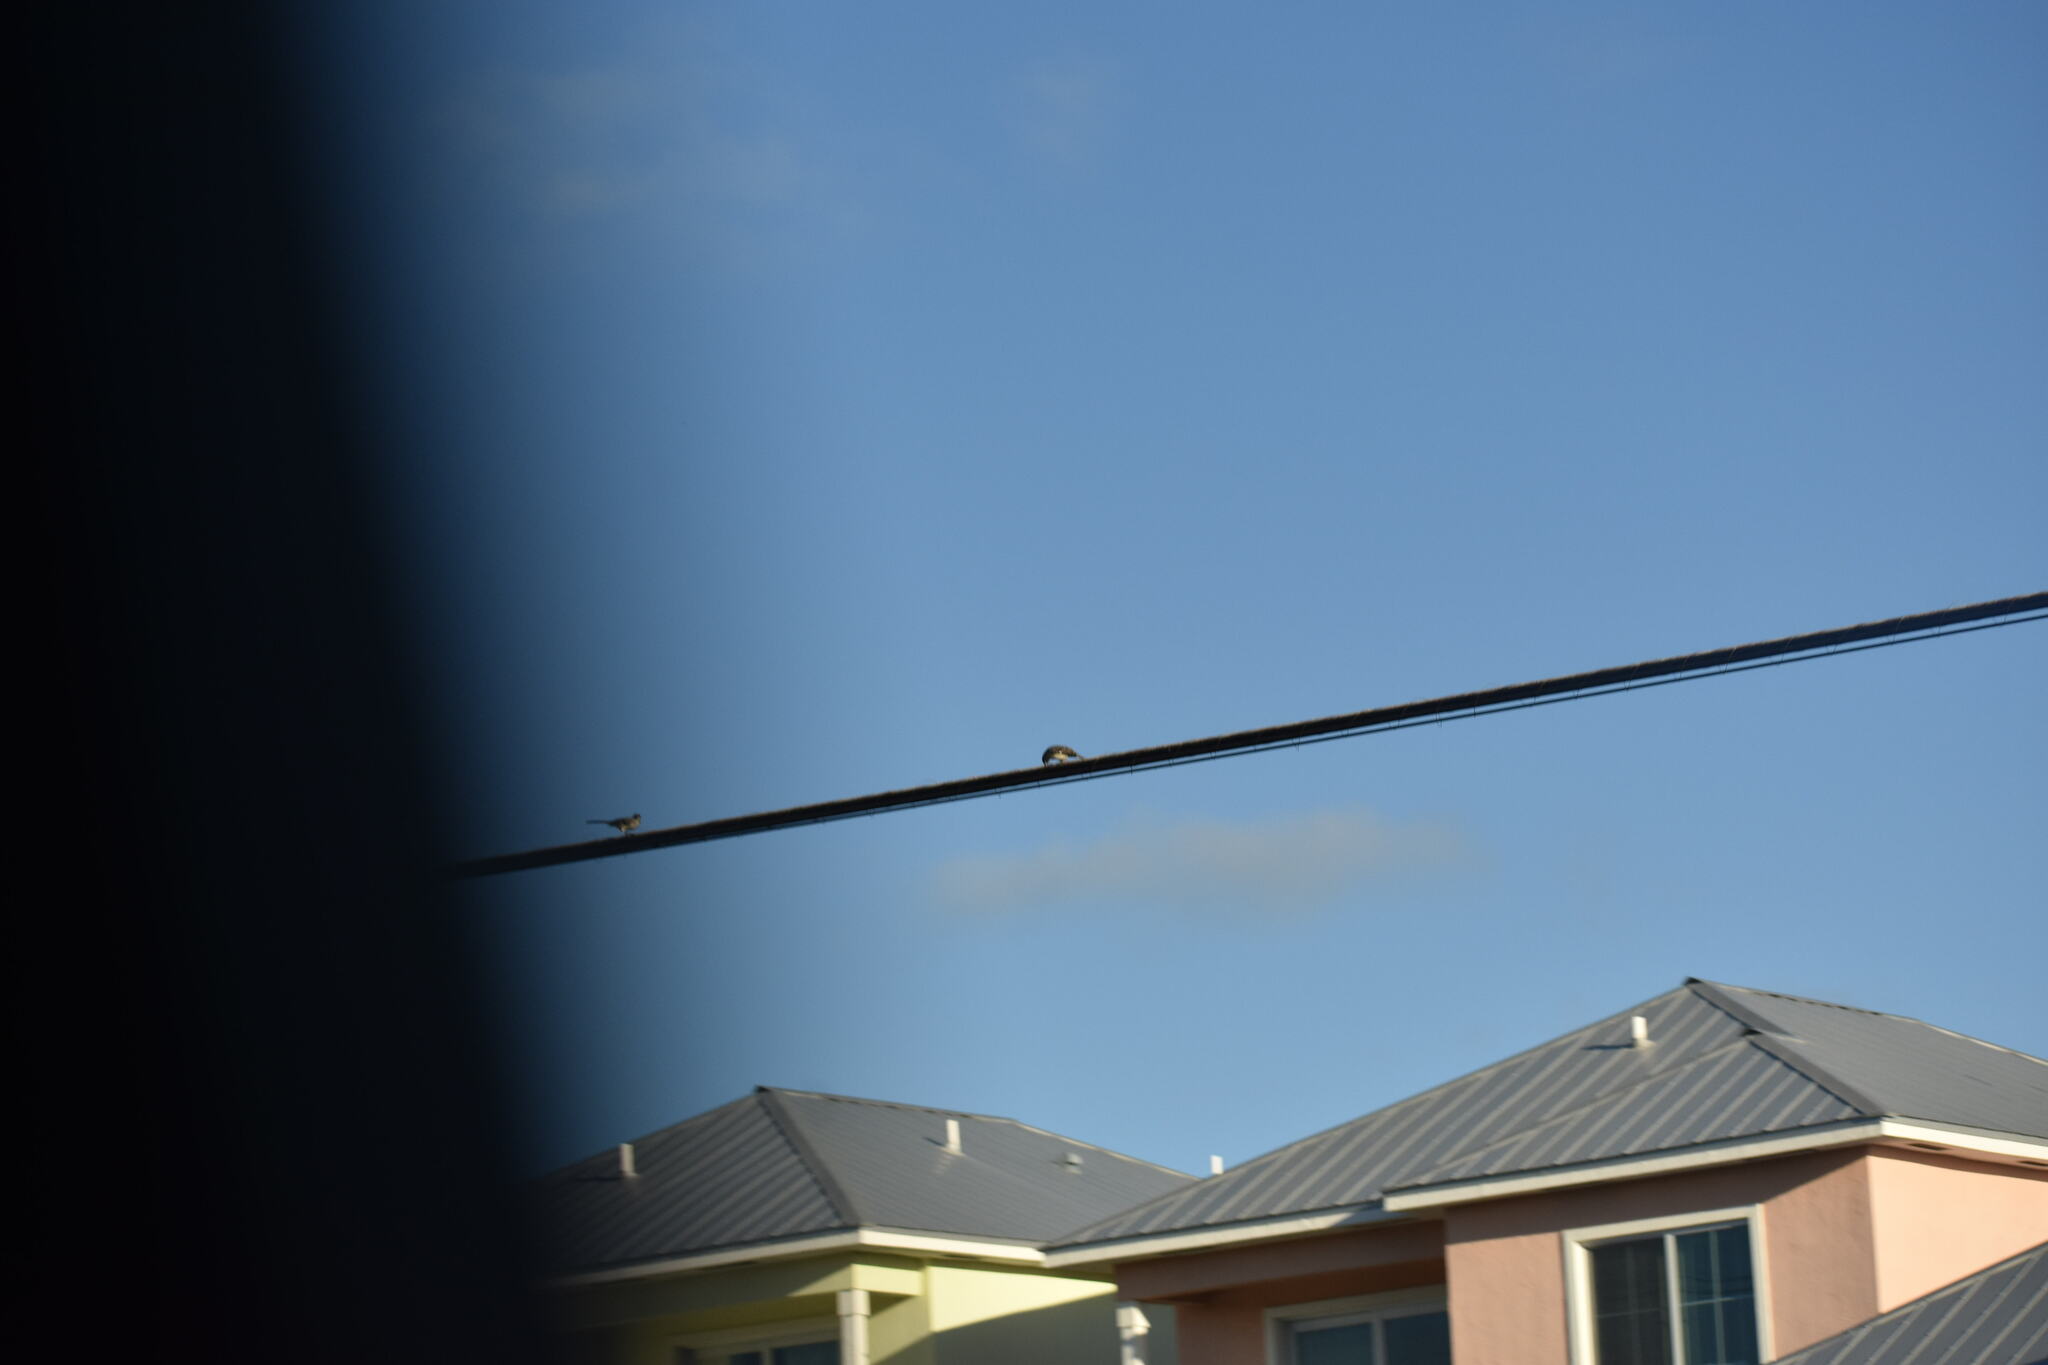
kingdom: Animalia
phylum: Chordata
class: Aves
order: Passeriformes
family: Mimidae
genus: Mimus
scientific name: Mimus polyglottos
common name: Northern mockingbird
